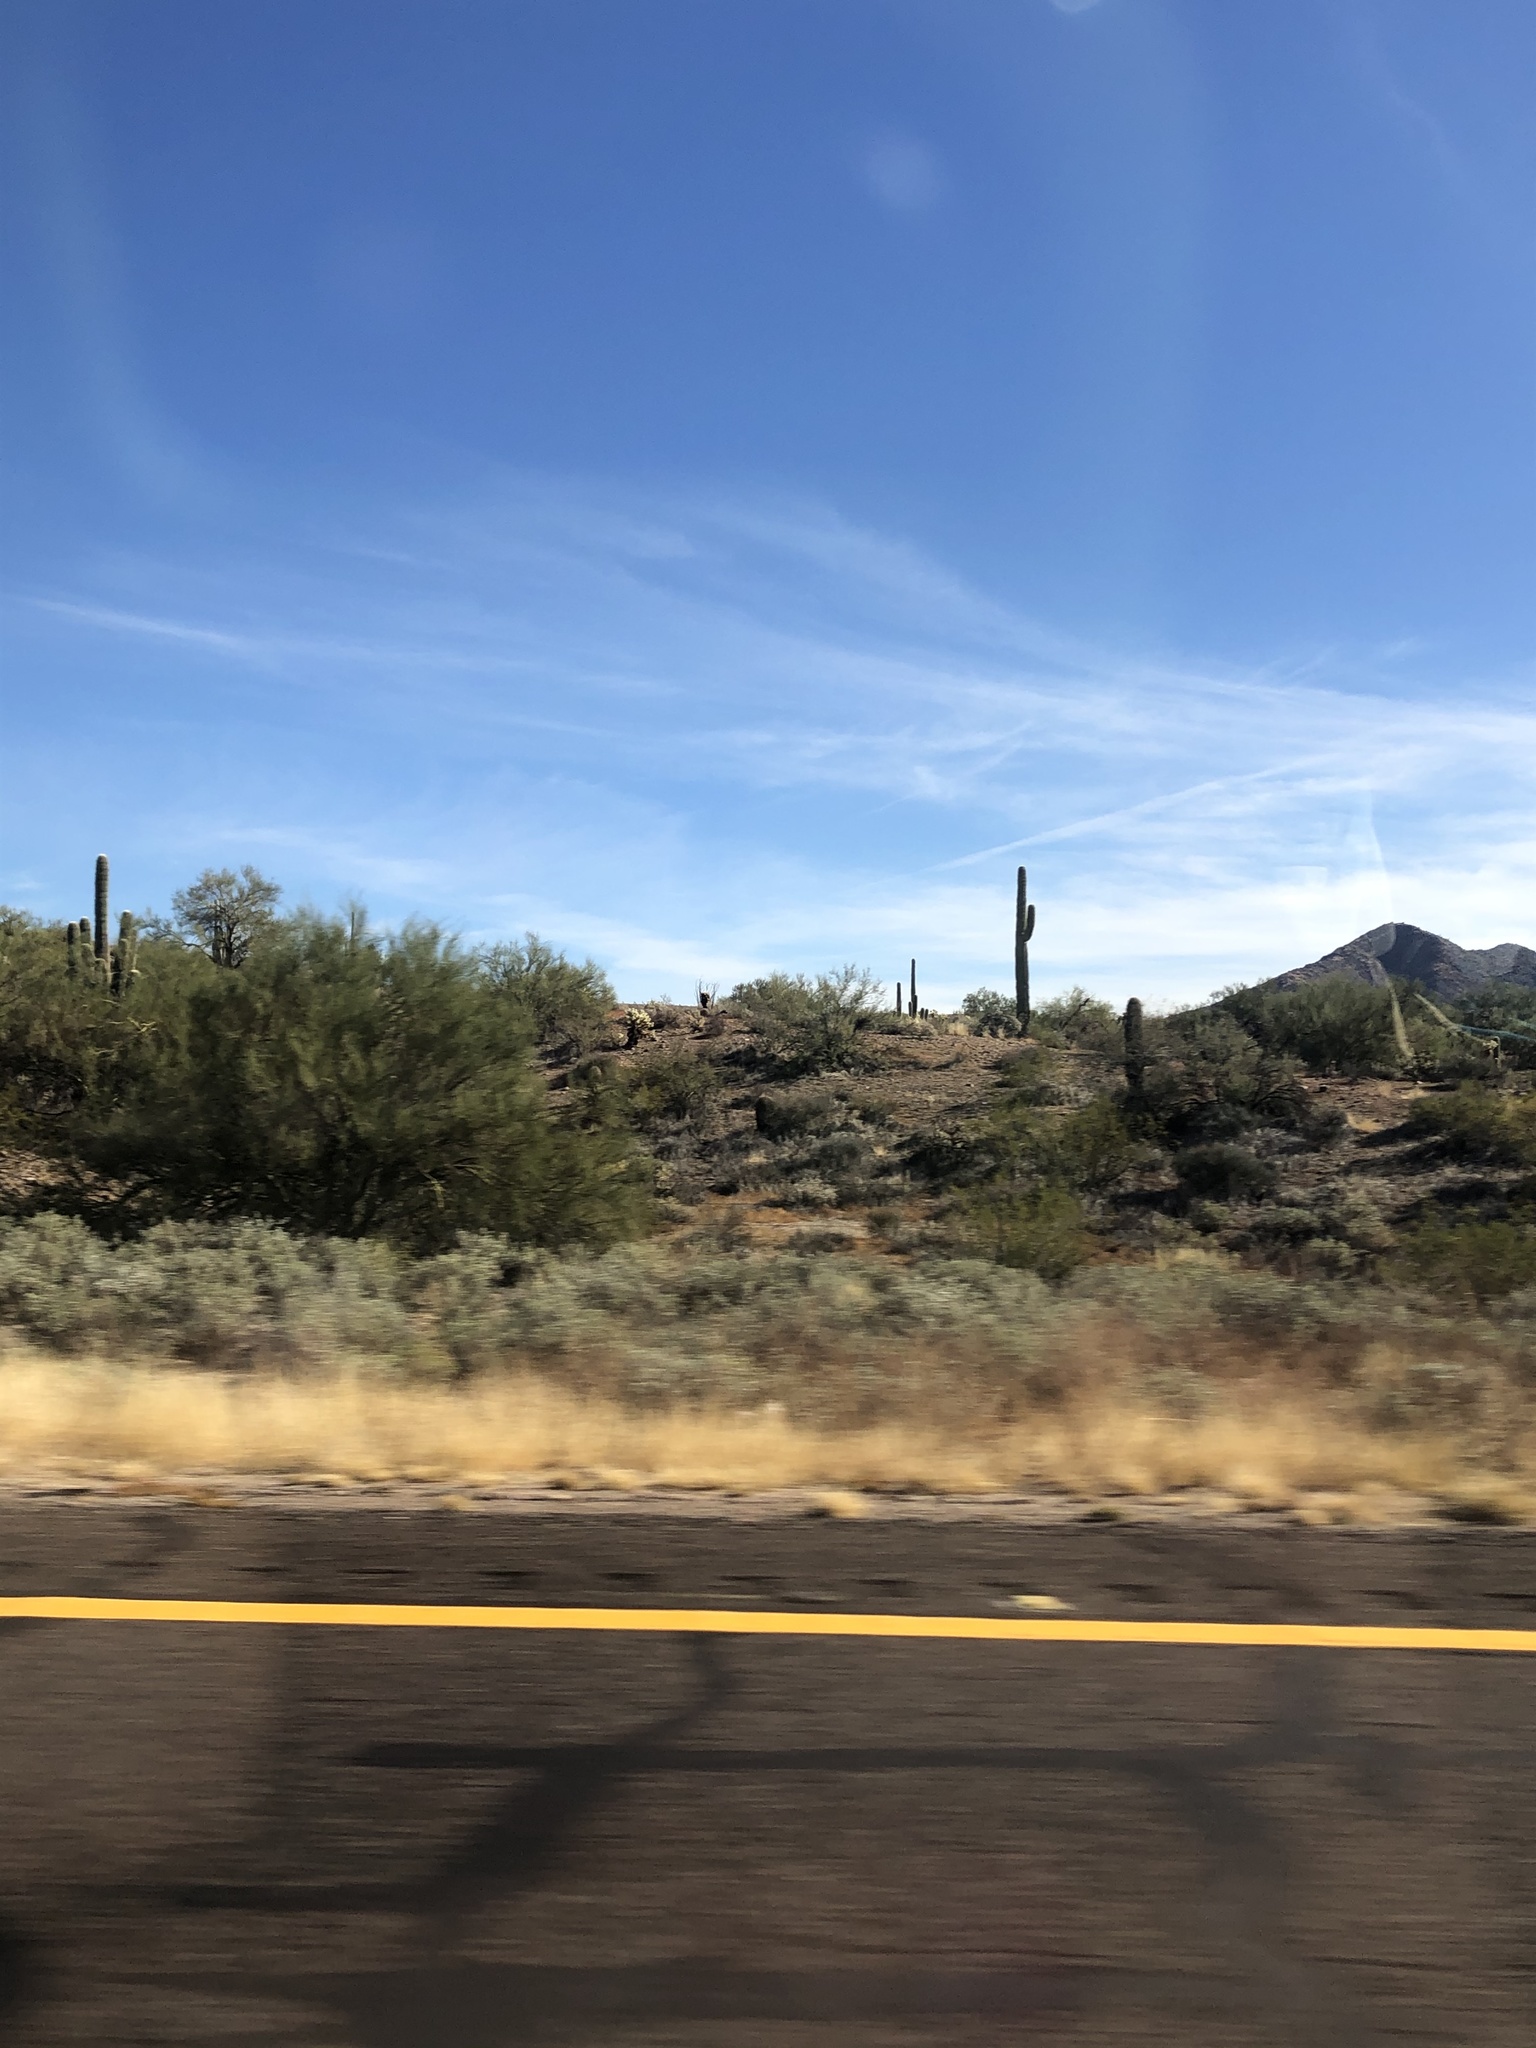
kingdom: Plantae
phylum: Tracheophyta
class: Magnoliopsida
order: Caryophyllales
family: Cactaceae
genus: Carnegiea
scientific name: Carnegiea gigantea
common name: Saguaro
